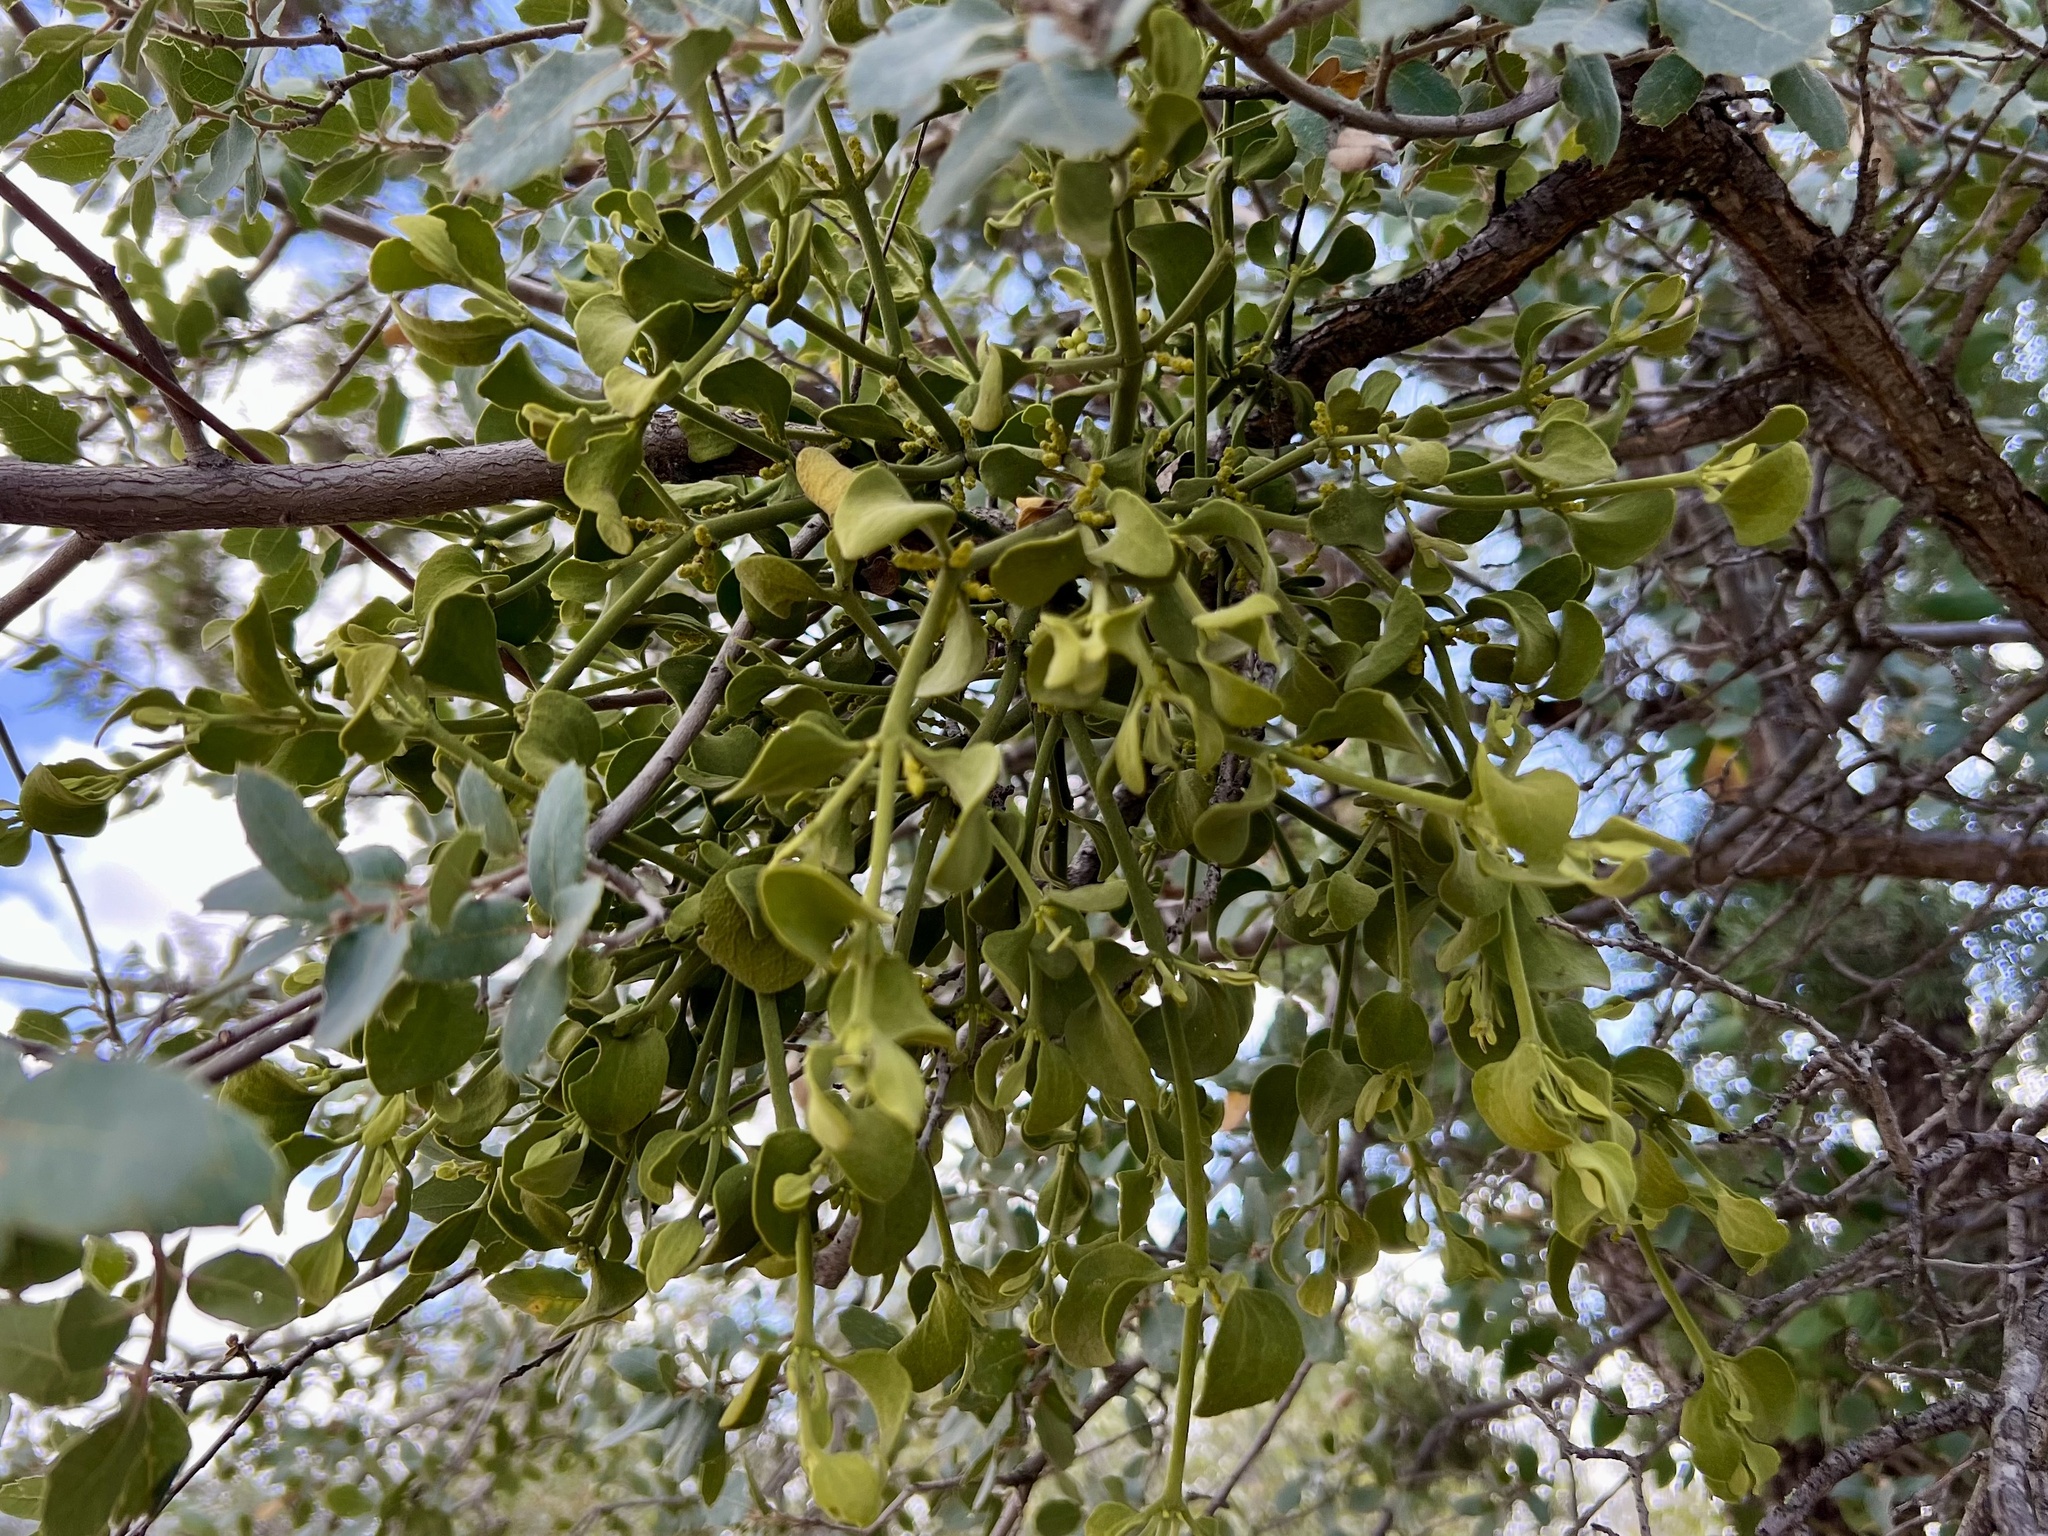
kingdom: Plantae
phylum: Tracheophyta
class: Magnoliopsida
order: Santalales
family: Viscaceae
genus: Phoradendron
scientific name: Phoradendron coryae
